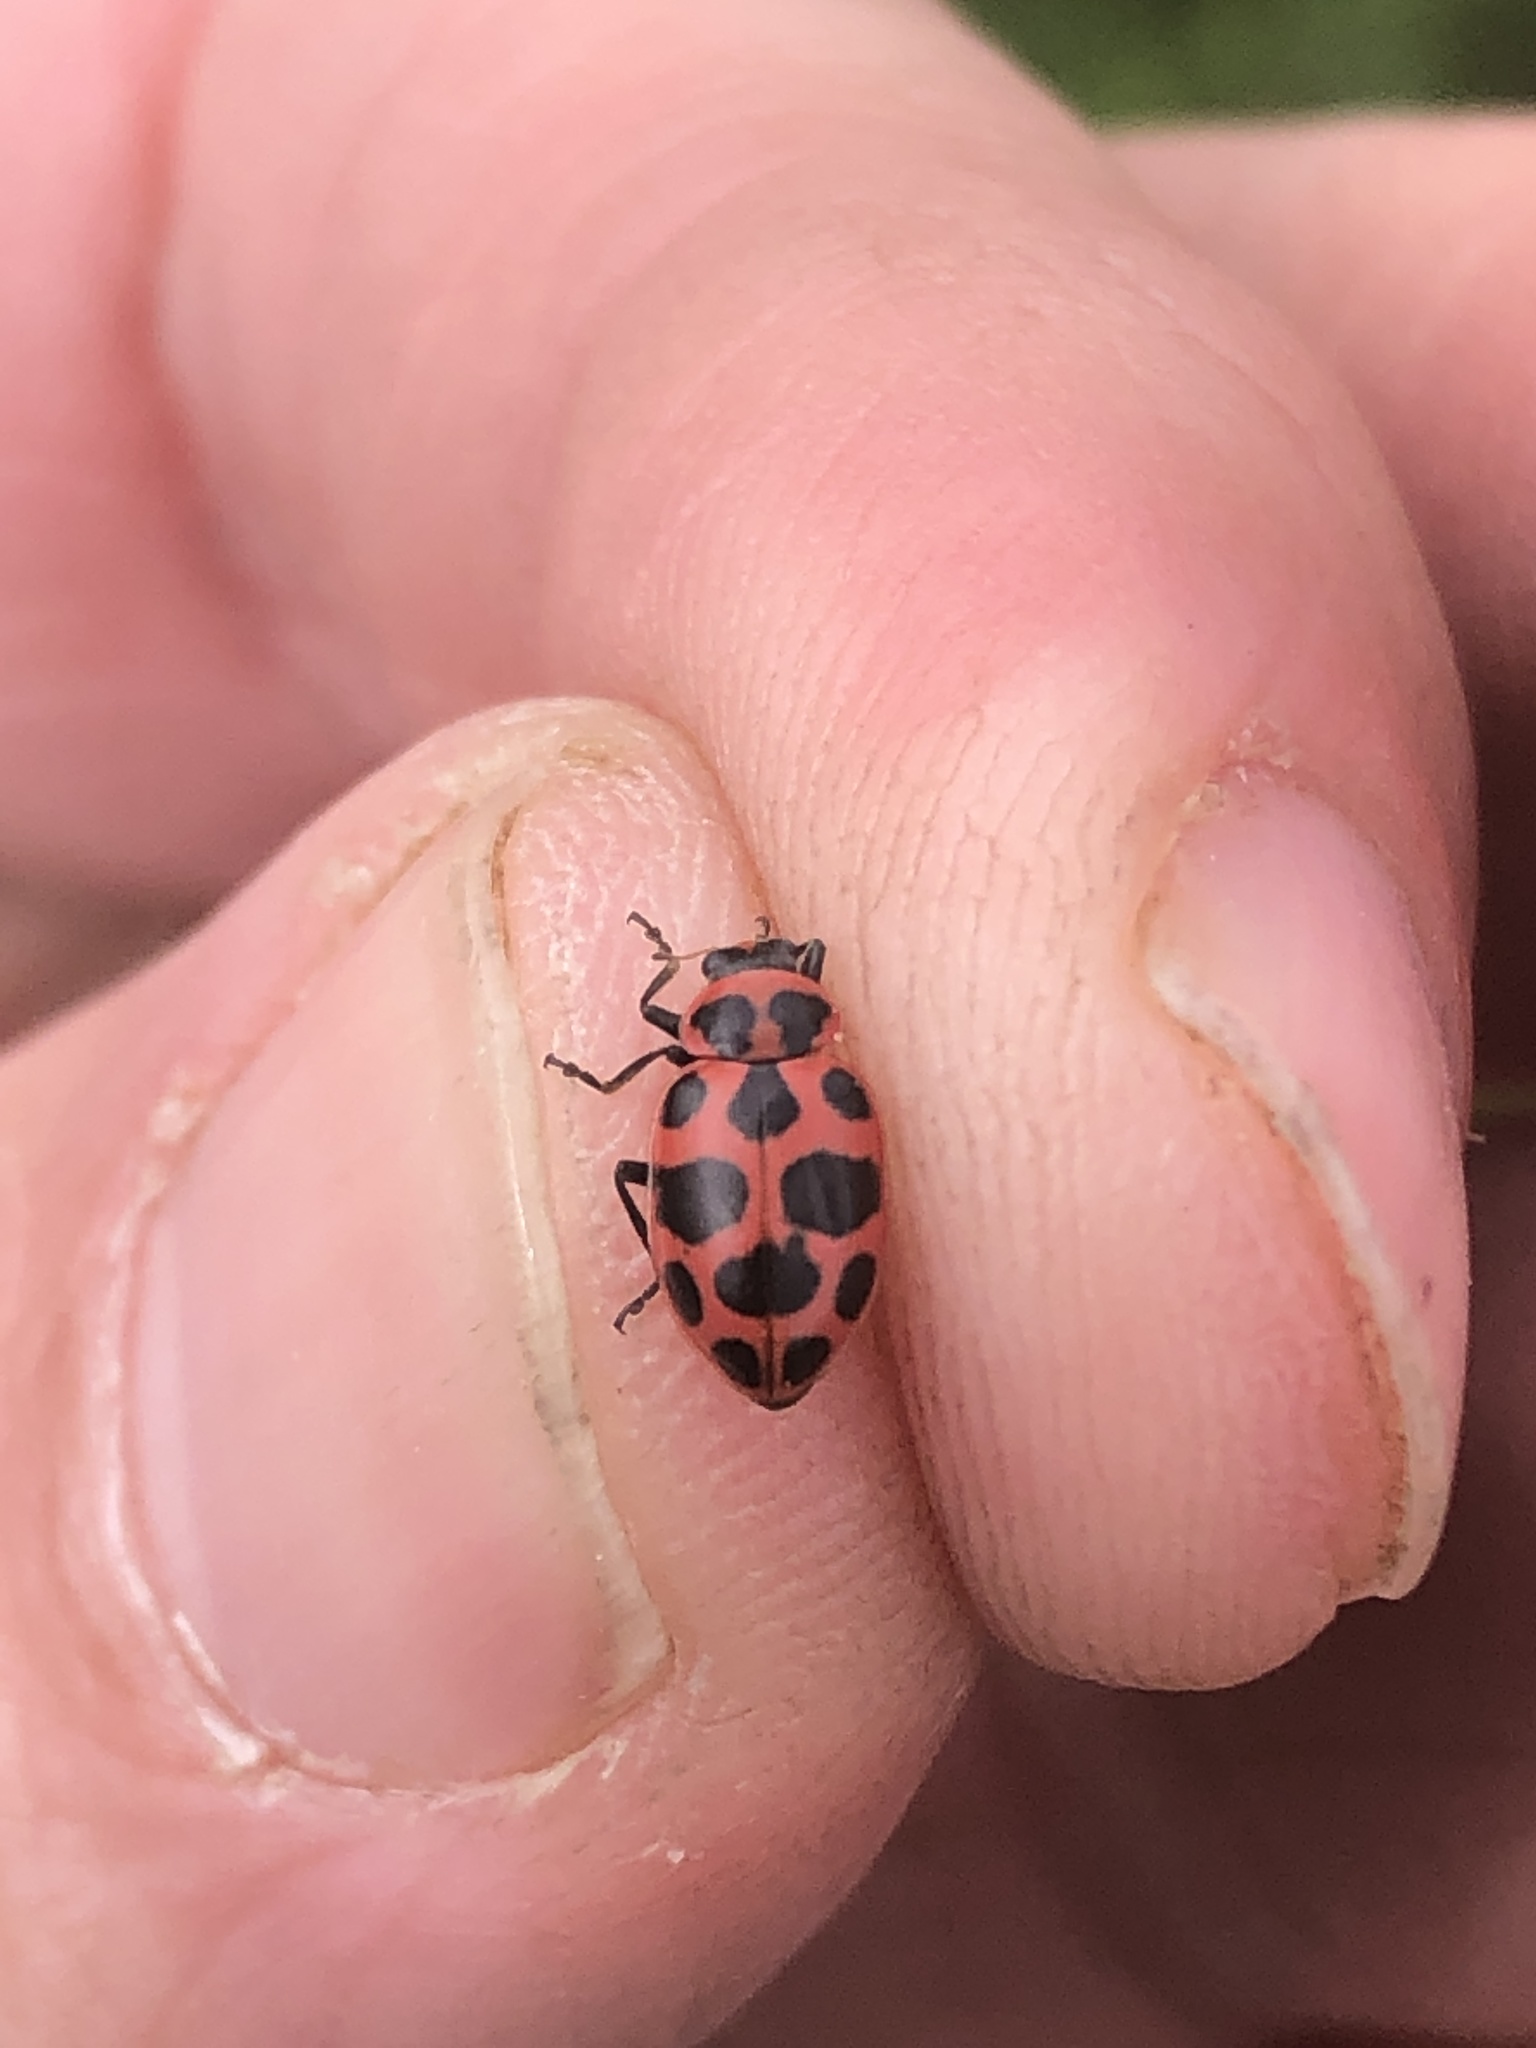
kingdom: Animalia
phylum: Arthropoda
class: Insecta
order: Coleoptera
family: Coccinellidae
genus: Coleomegilla
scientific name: Coleomegilla maculata
